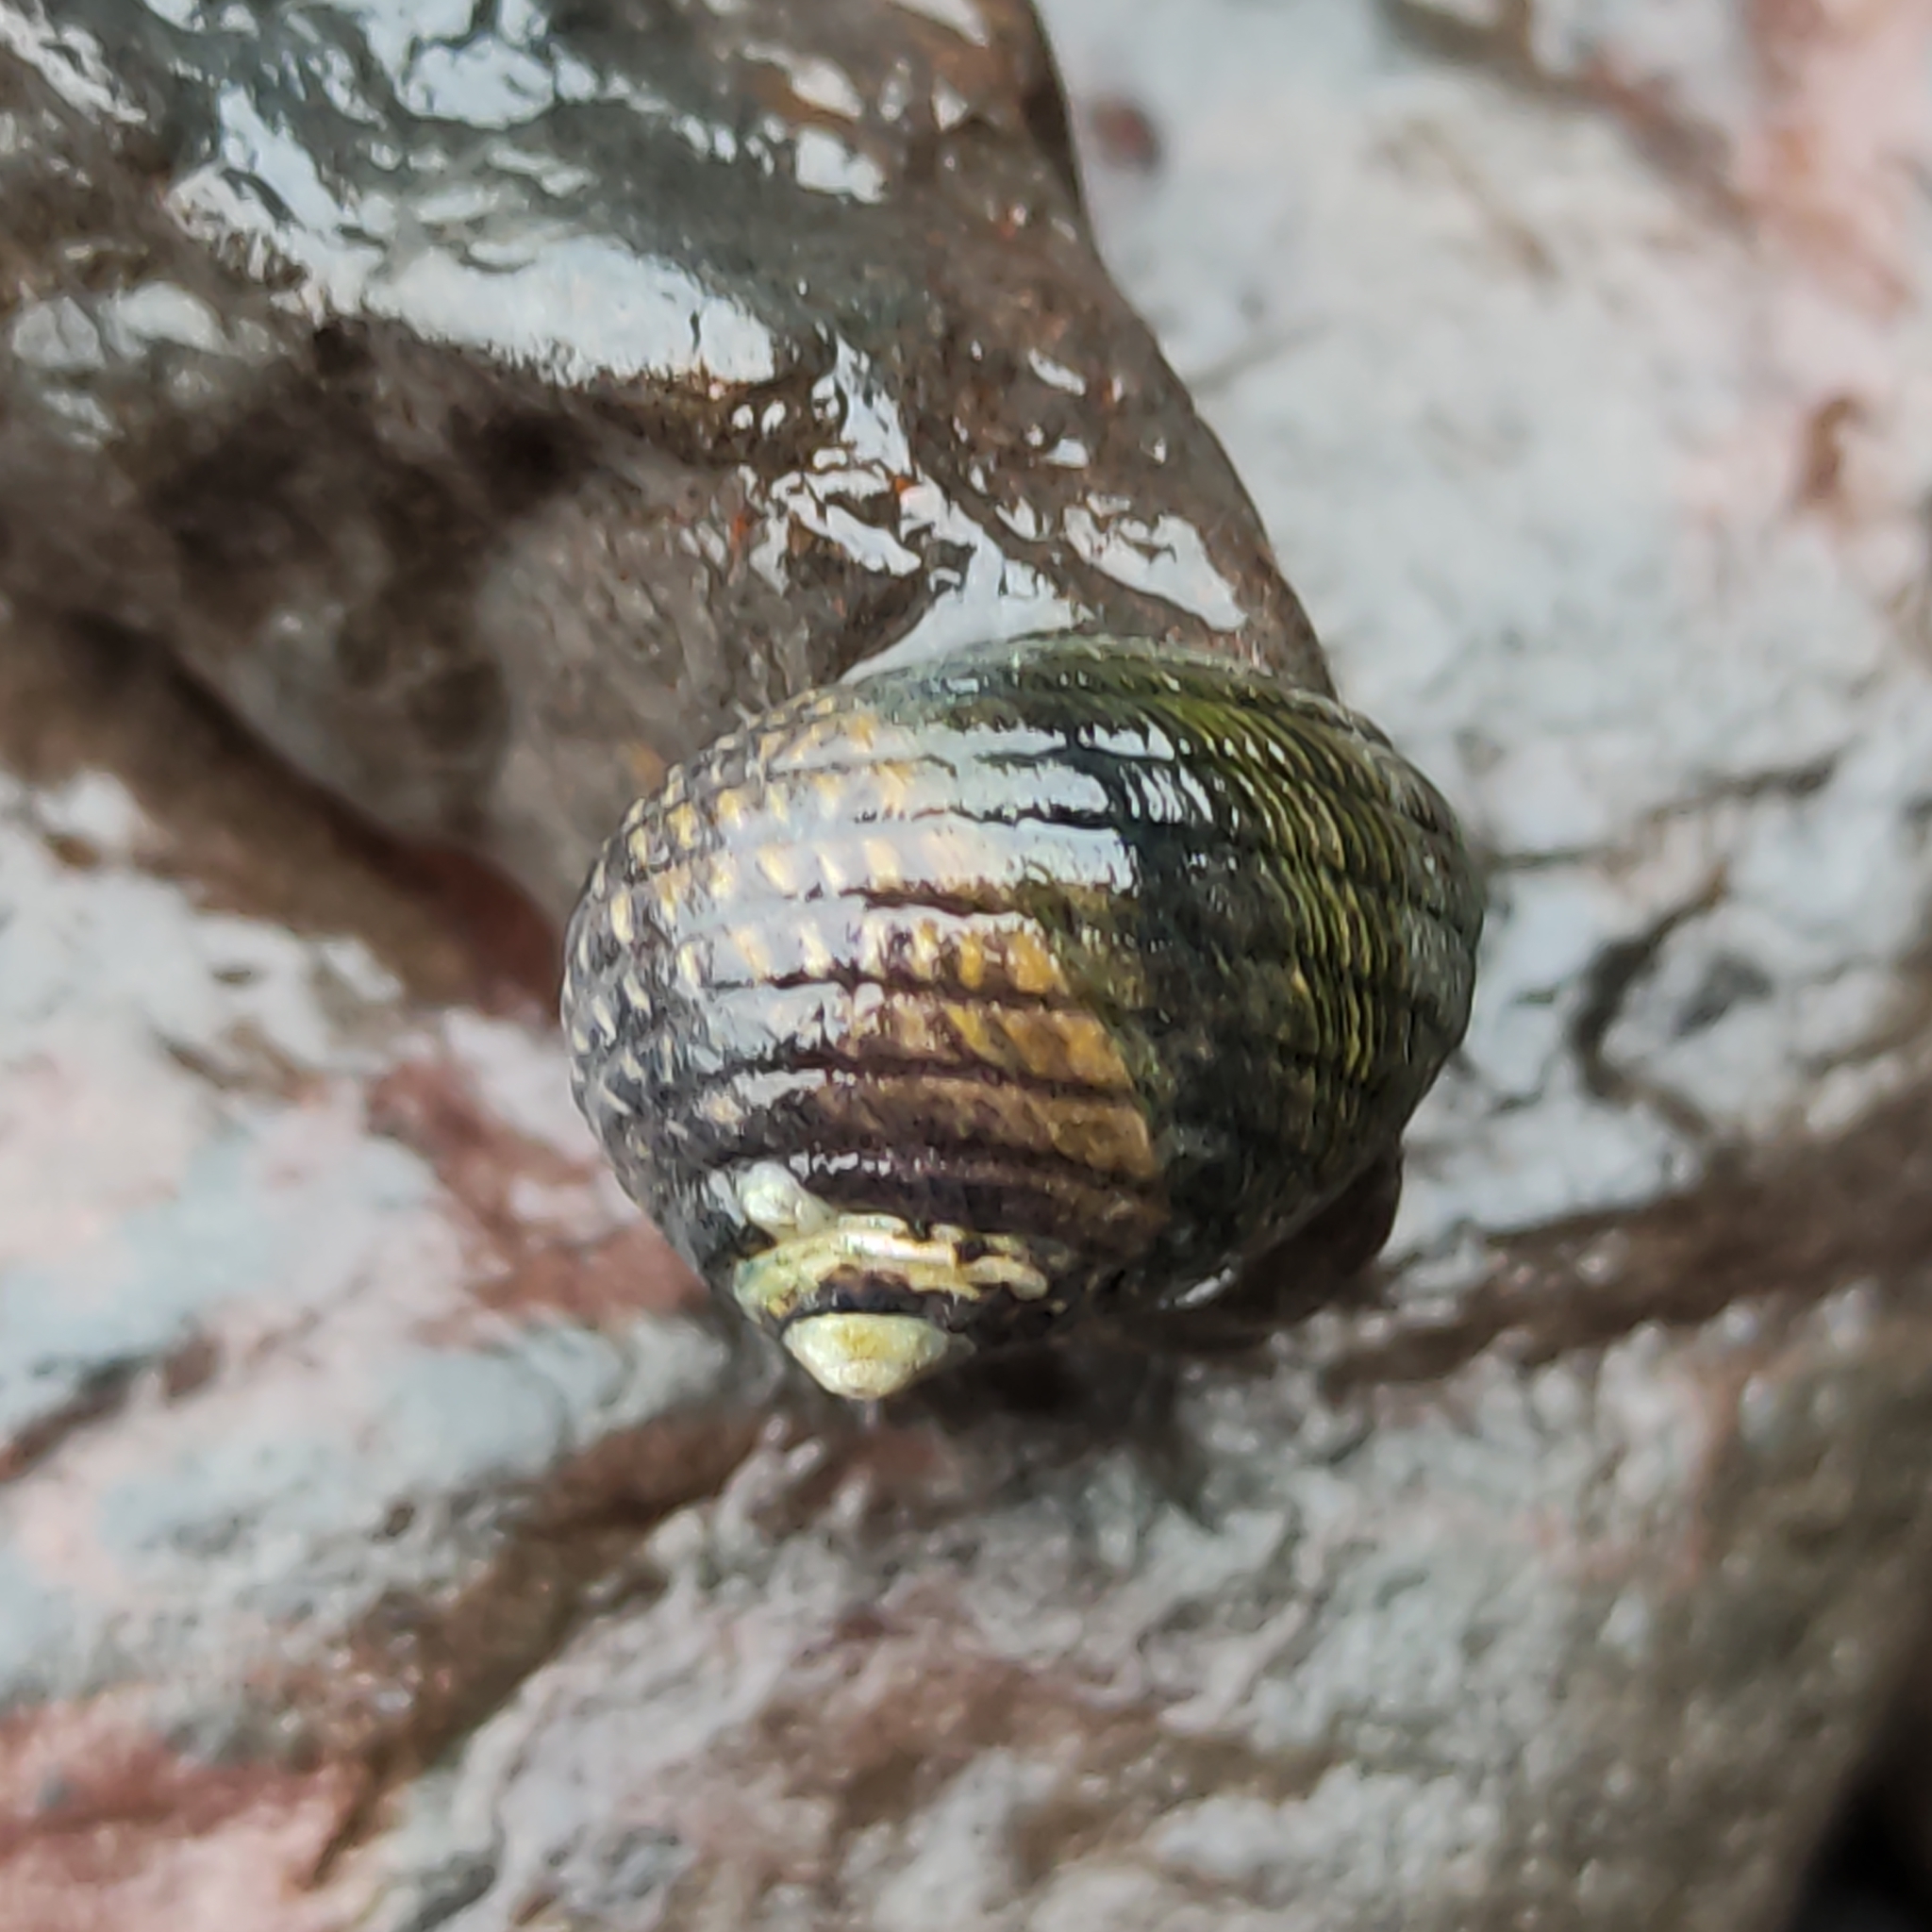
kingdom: Animalia
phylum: Mollusca
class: Gastropoda
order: Trochida
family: Trochidae
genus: Diloma
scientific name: Diloma aethiops
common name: Scorched monodont
